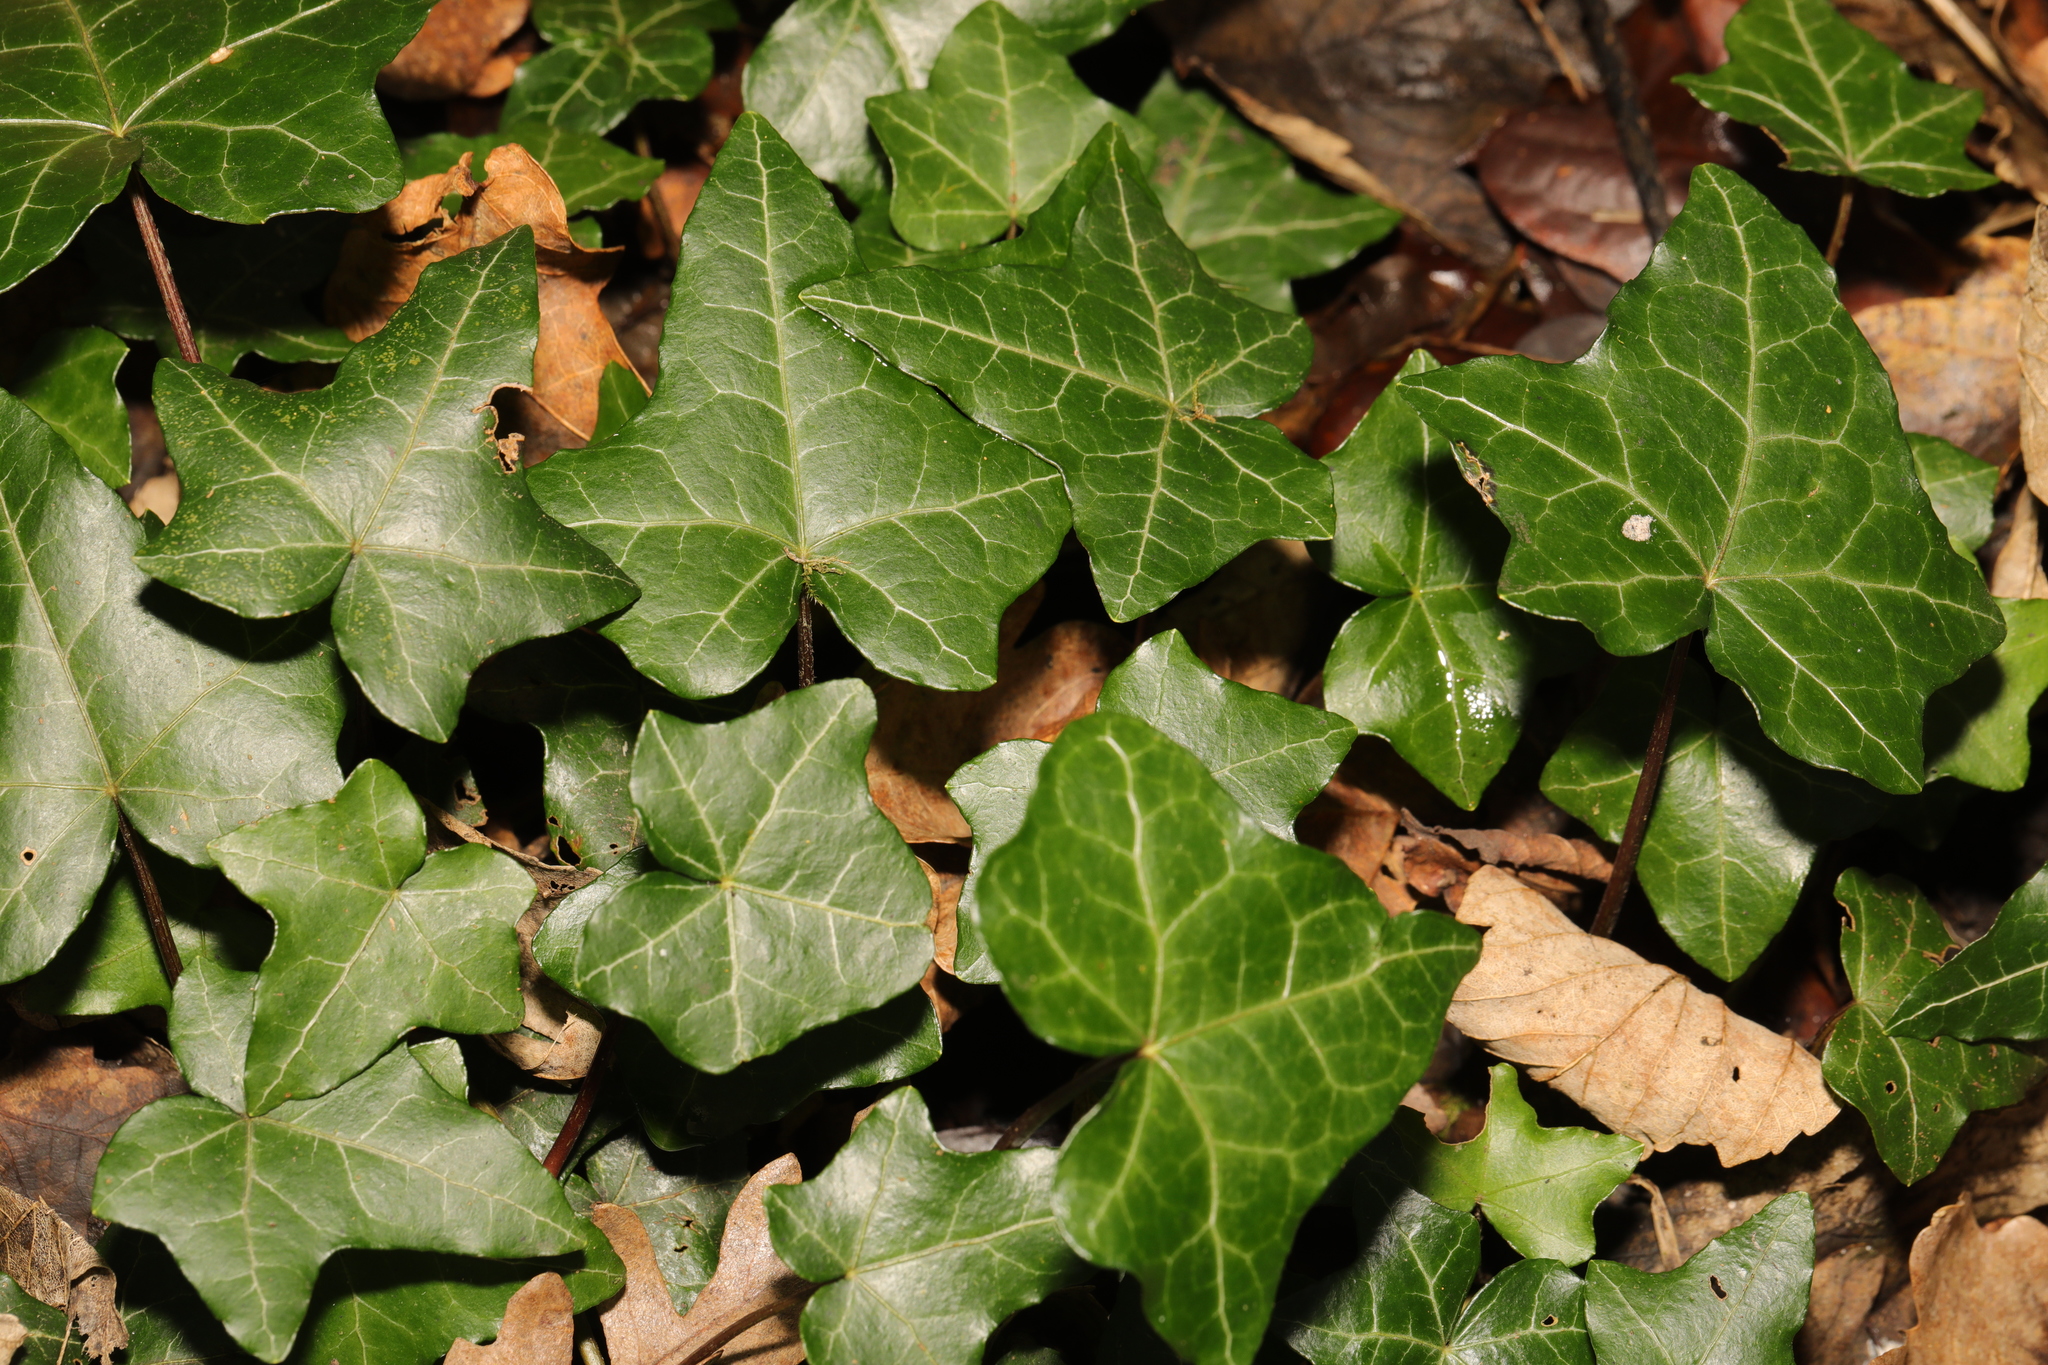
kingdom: Plantae
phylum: Tracheophyta
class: Magnoliopsida
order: Apiales
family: Araliaceae
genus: Hedera
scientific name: Hedera helix
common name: Ivy
